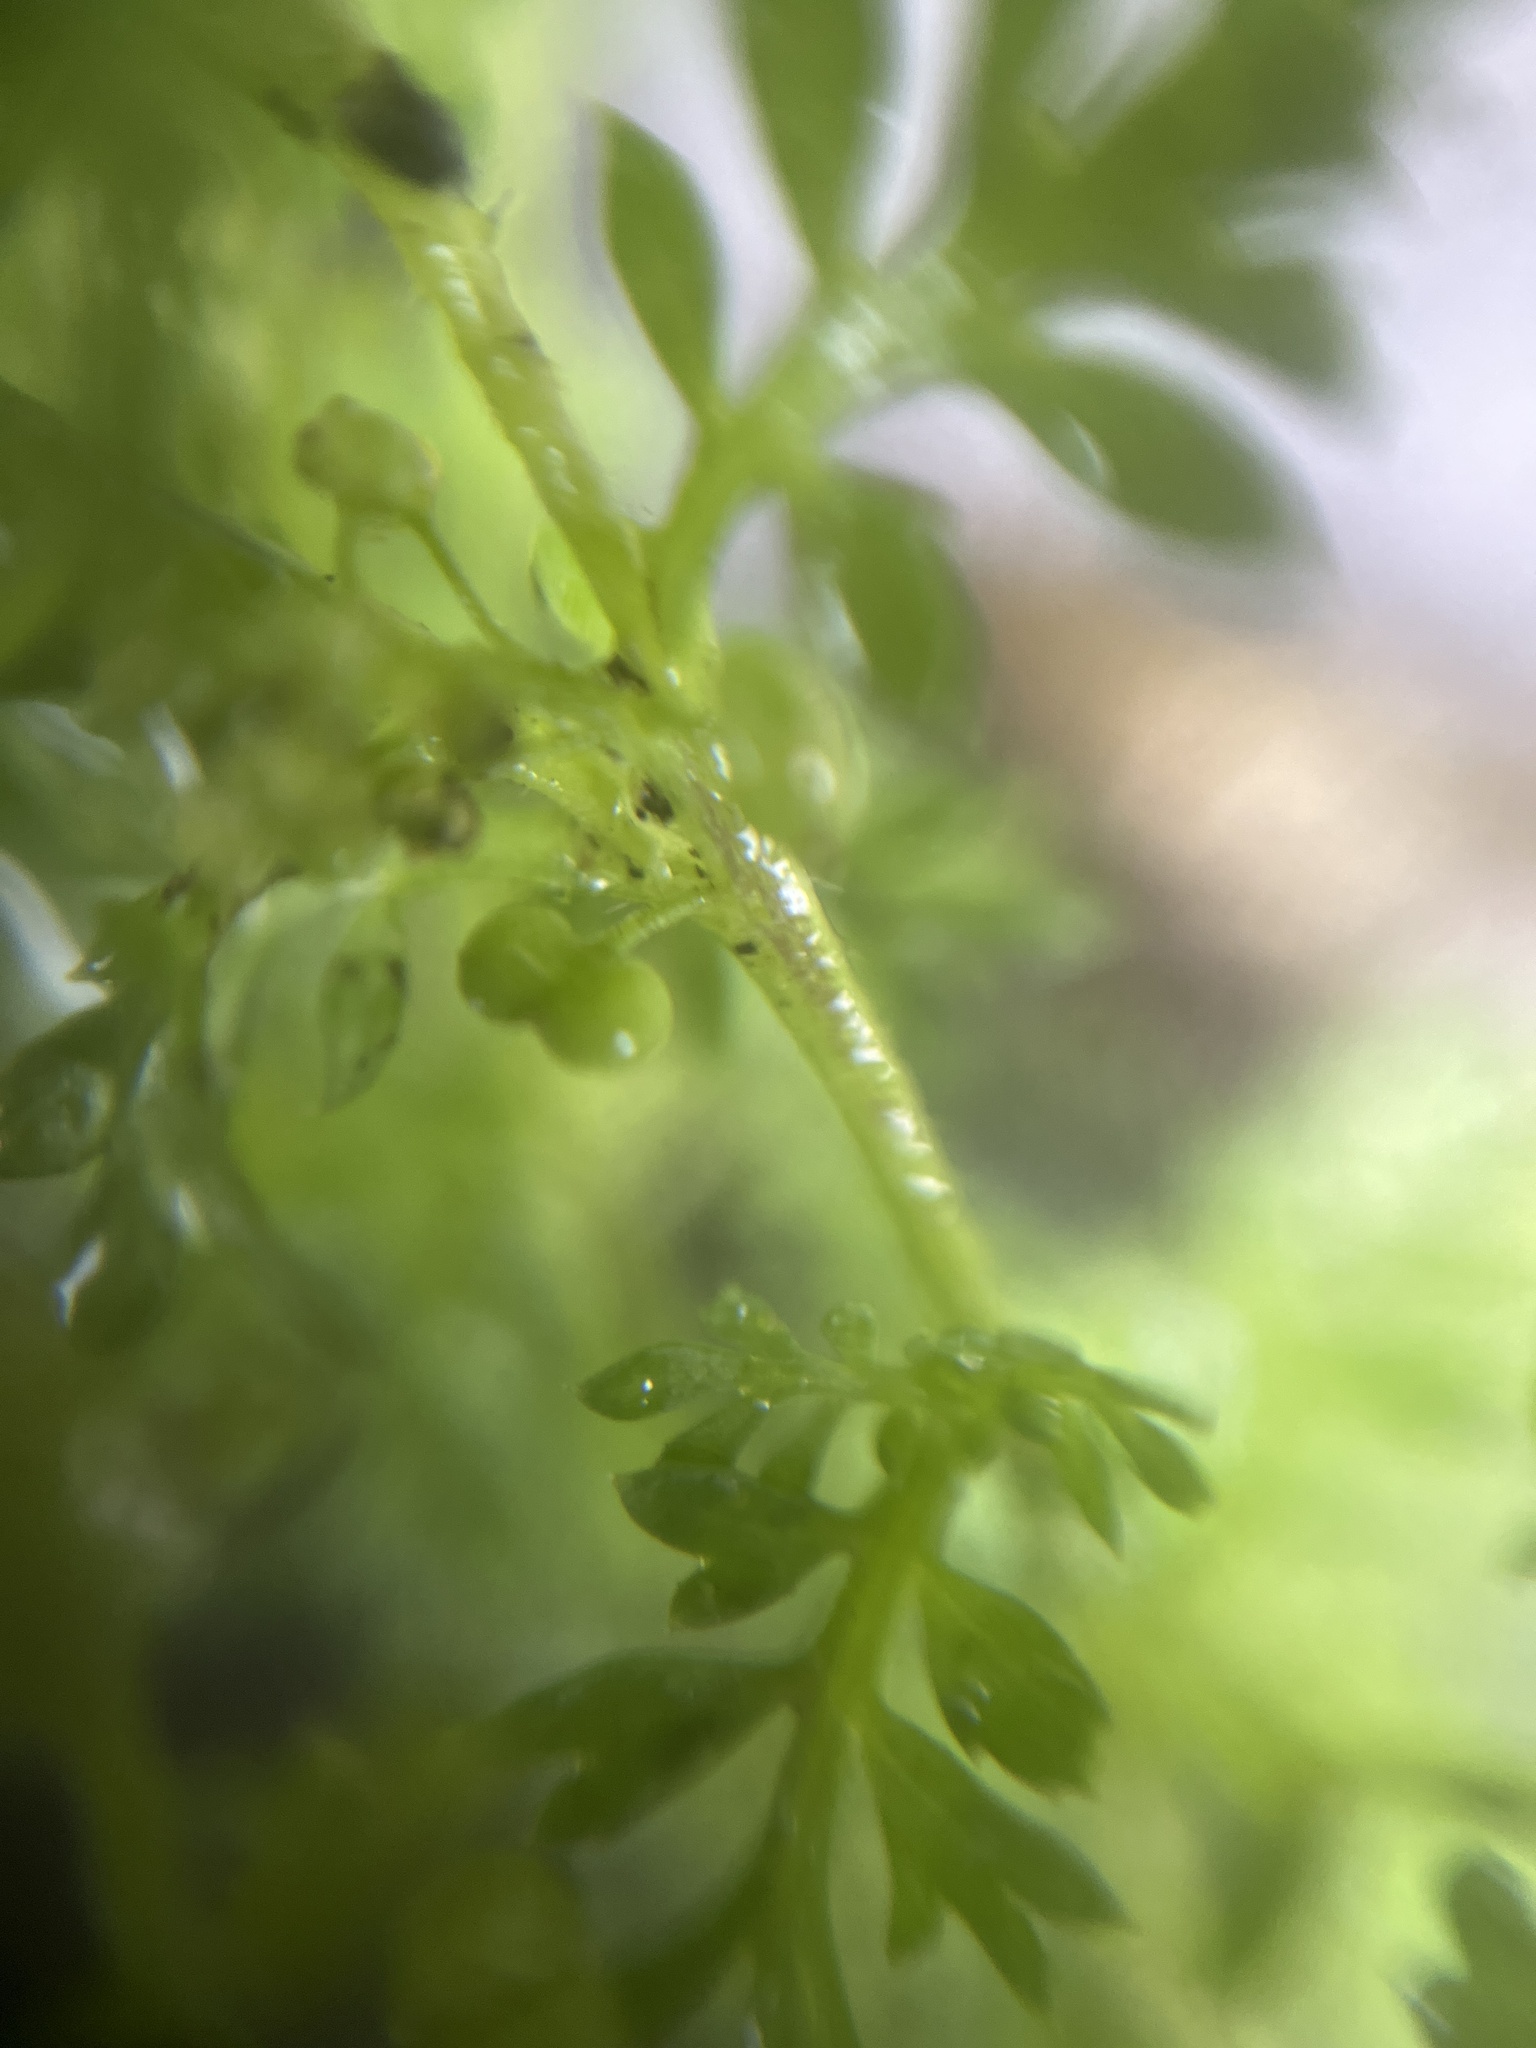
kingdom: Plantae
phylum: Tracheophyta
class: Magnoliopsida
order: Brassicales
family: Brassicaceae
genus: Lepidium
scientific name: Lepidium didymum
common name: Lesser swinecress
